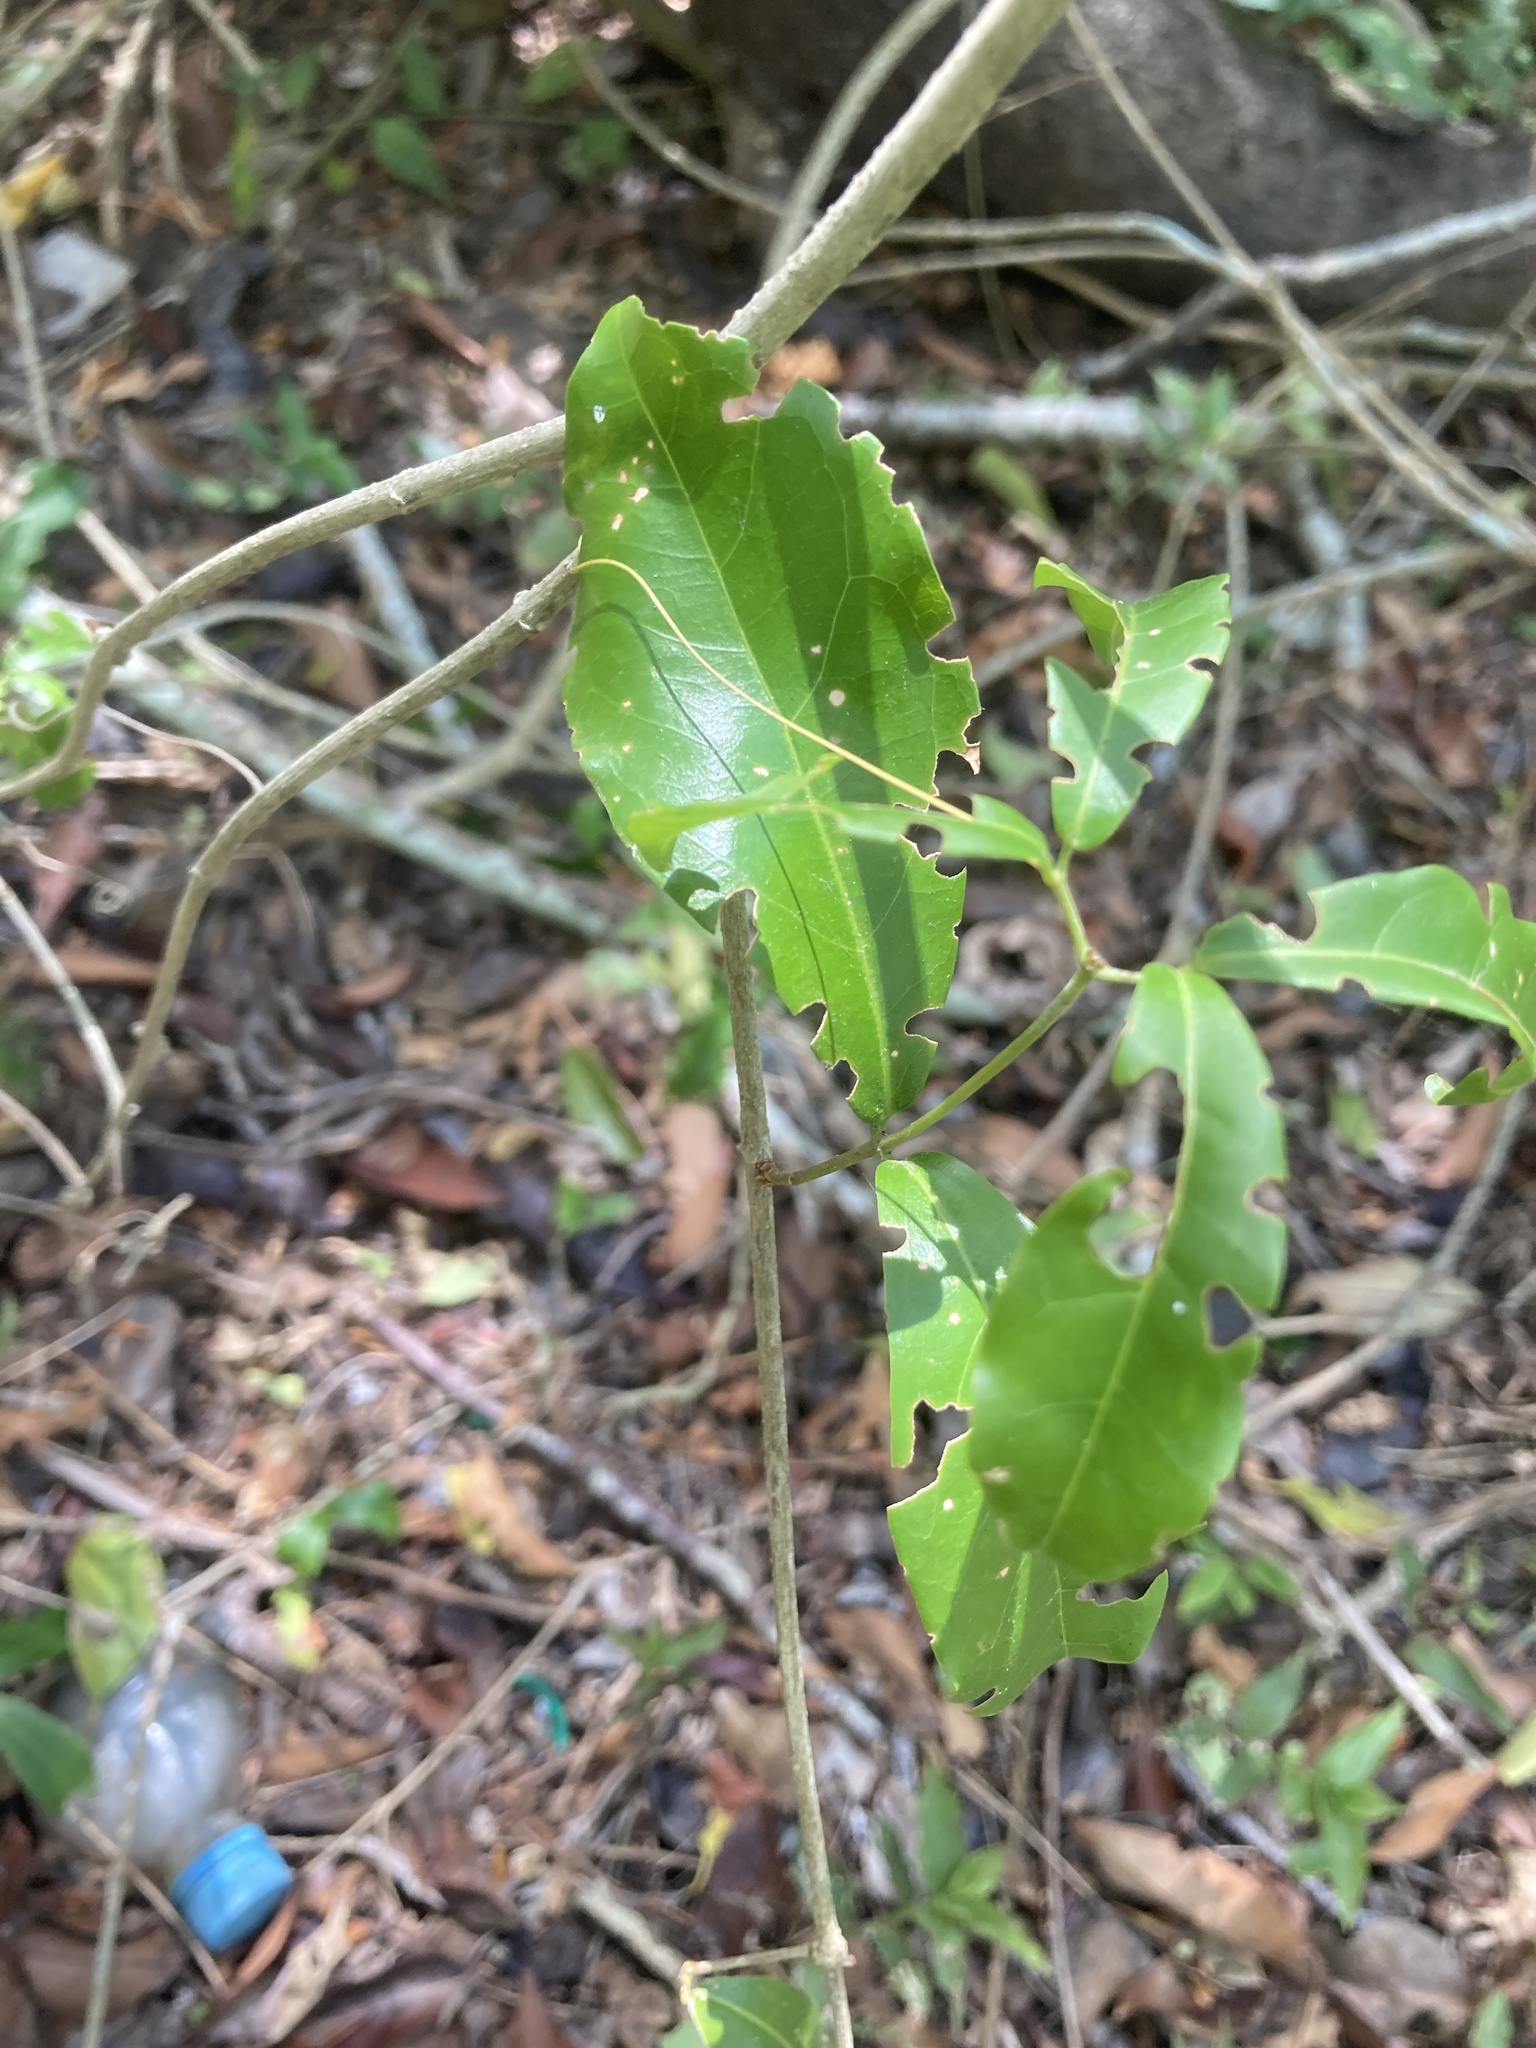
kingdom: Plantae
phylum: Tracheophyta
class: Magnoliopsida
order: Lamiales
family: Bignoniaceae
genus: Bignonia
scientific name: Bignonia callistegioides
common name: Argentine trumpetvine
